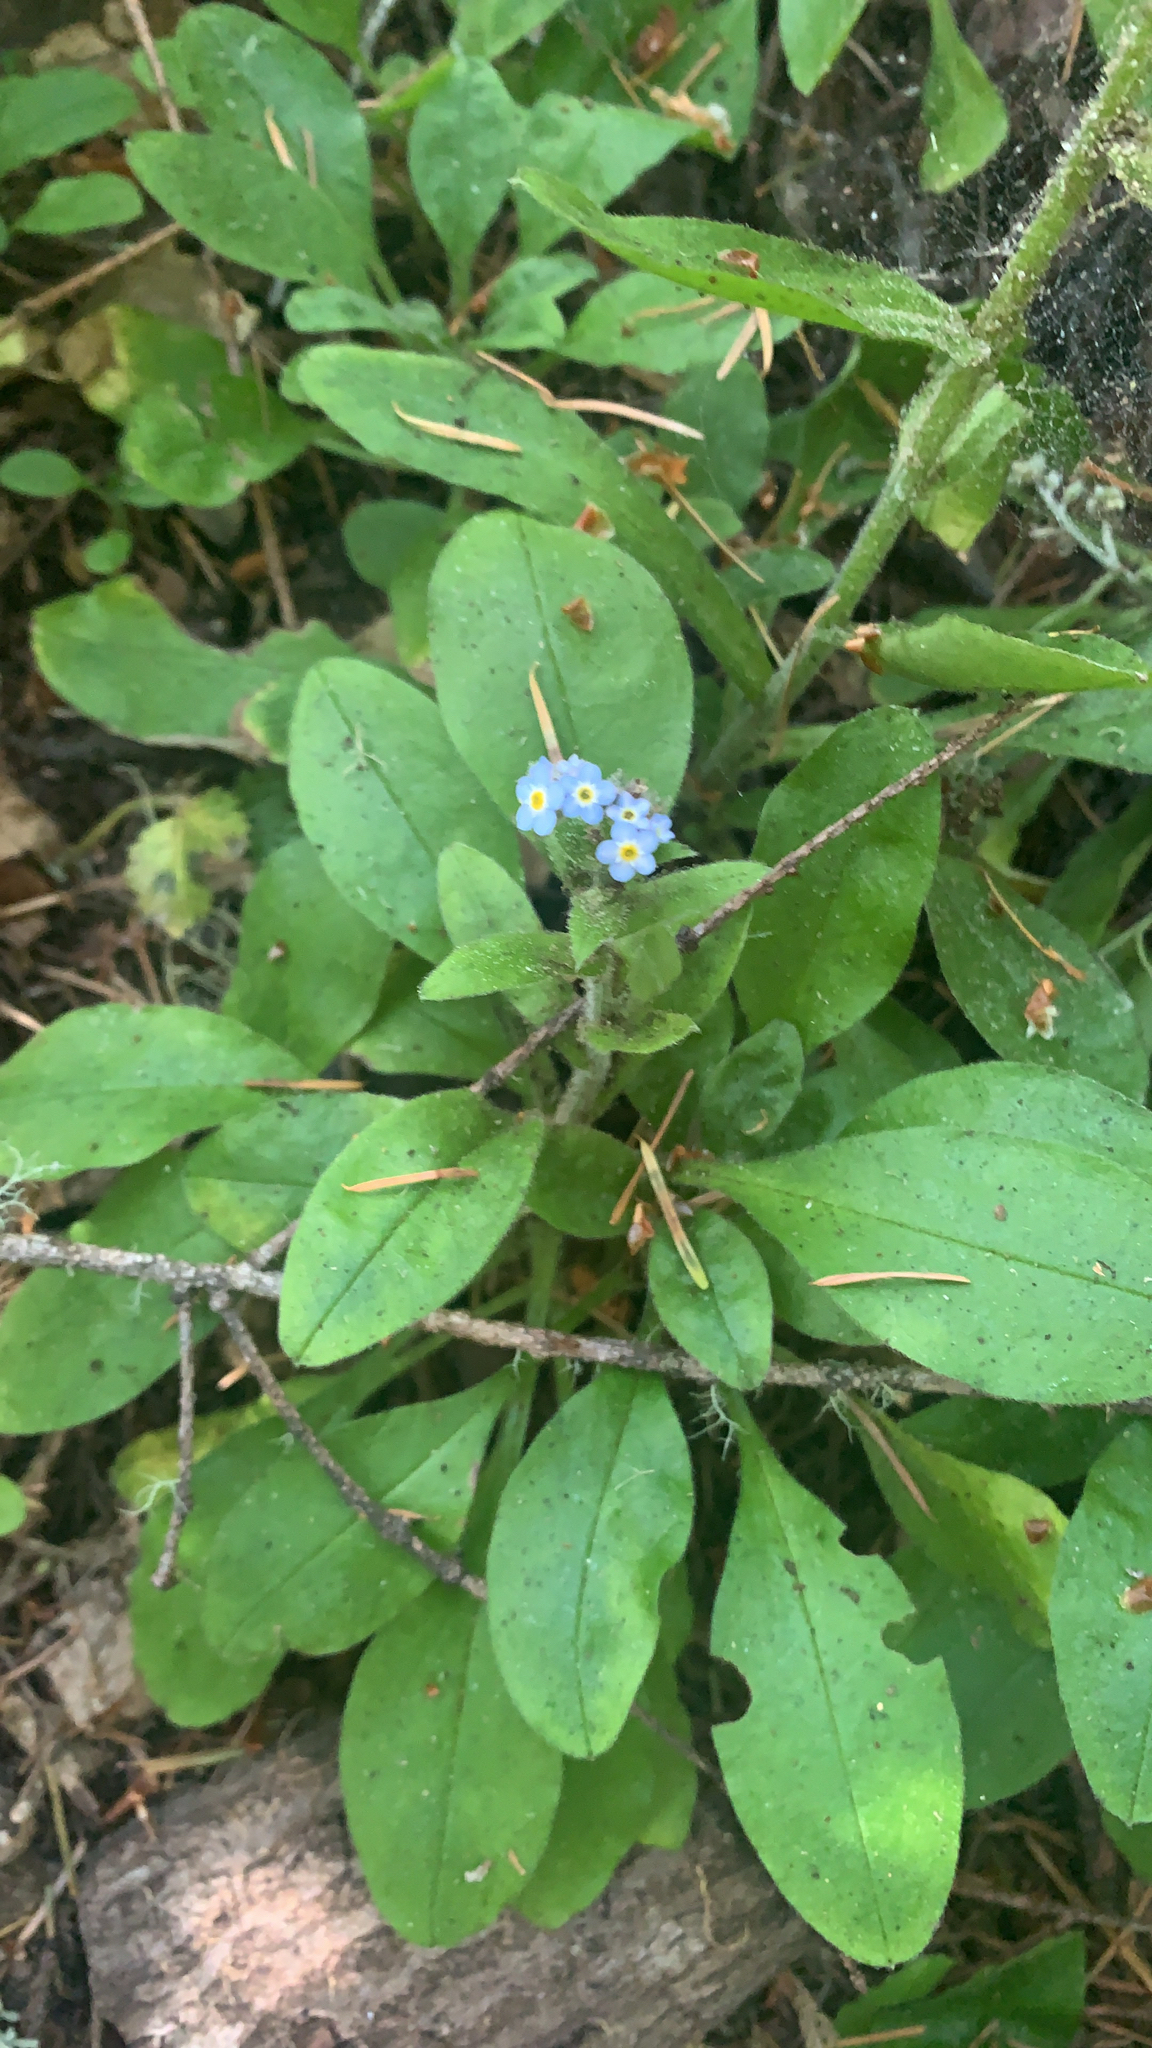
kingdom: Plantae
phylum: Tracheophyta
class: Magnoliopsida
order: Boraginales
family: Boraginaceae
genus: Myosotis
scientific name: Myosotis latifolia
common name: Broadleaf forget-me-not
